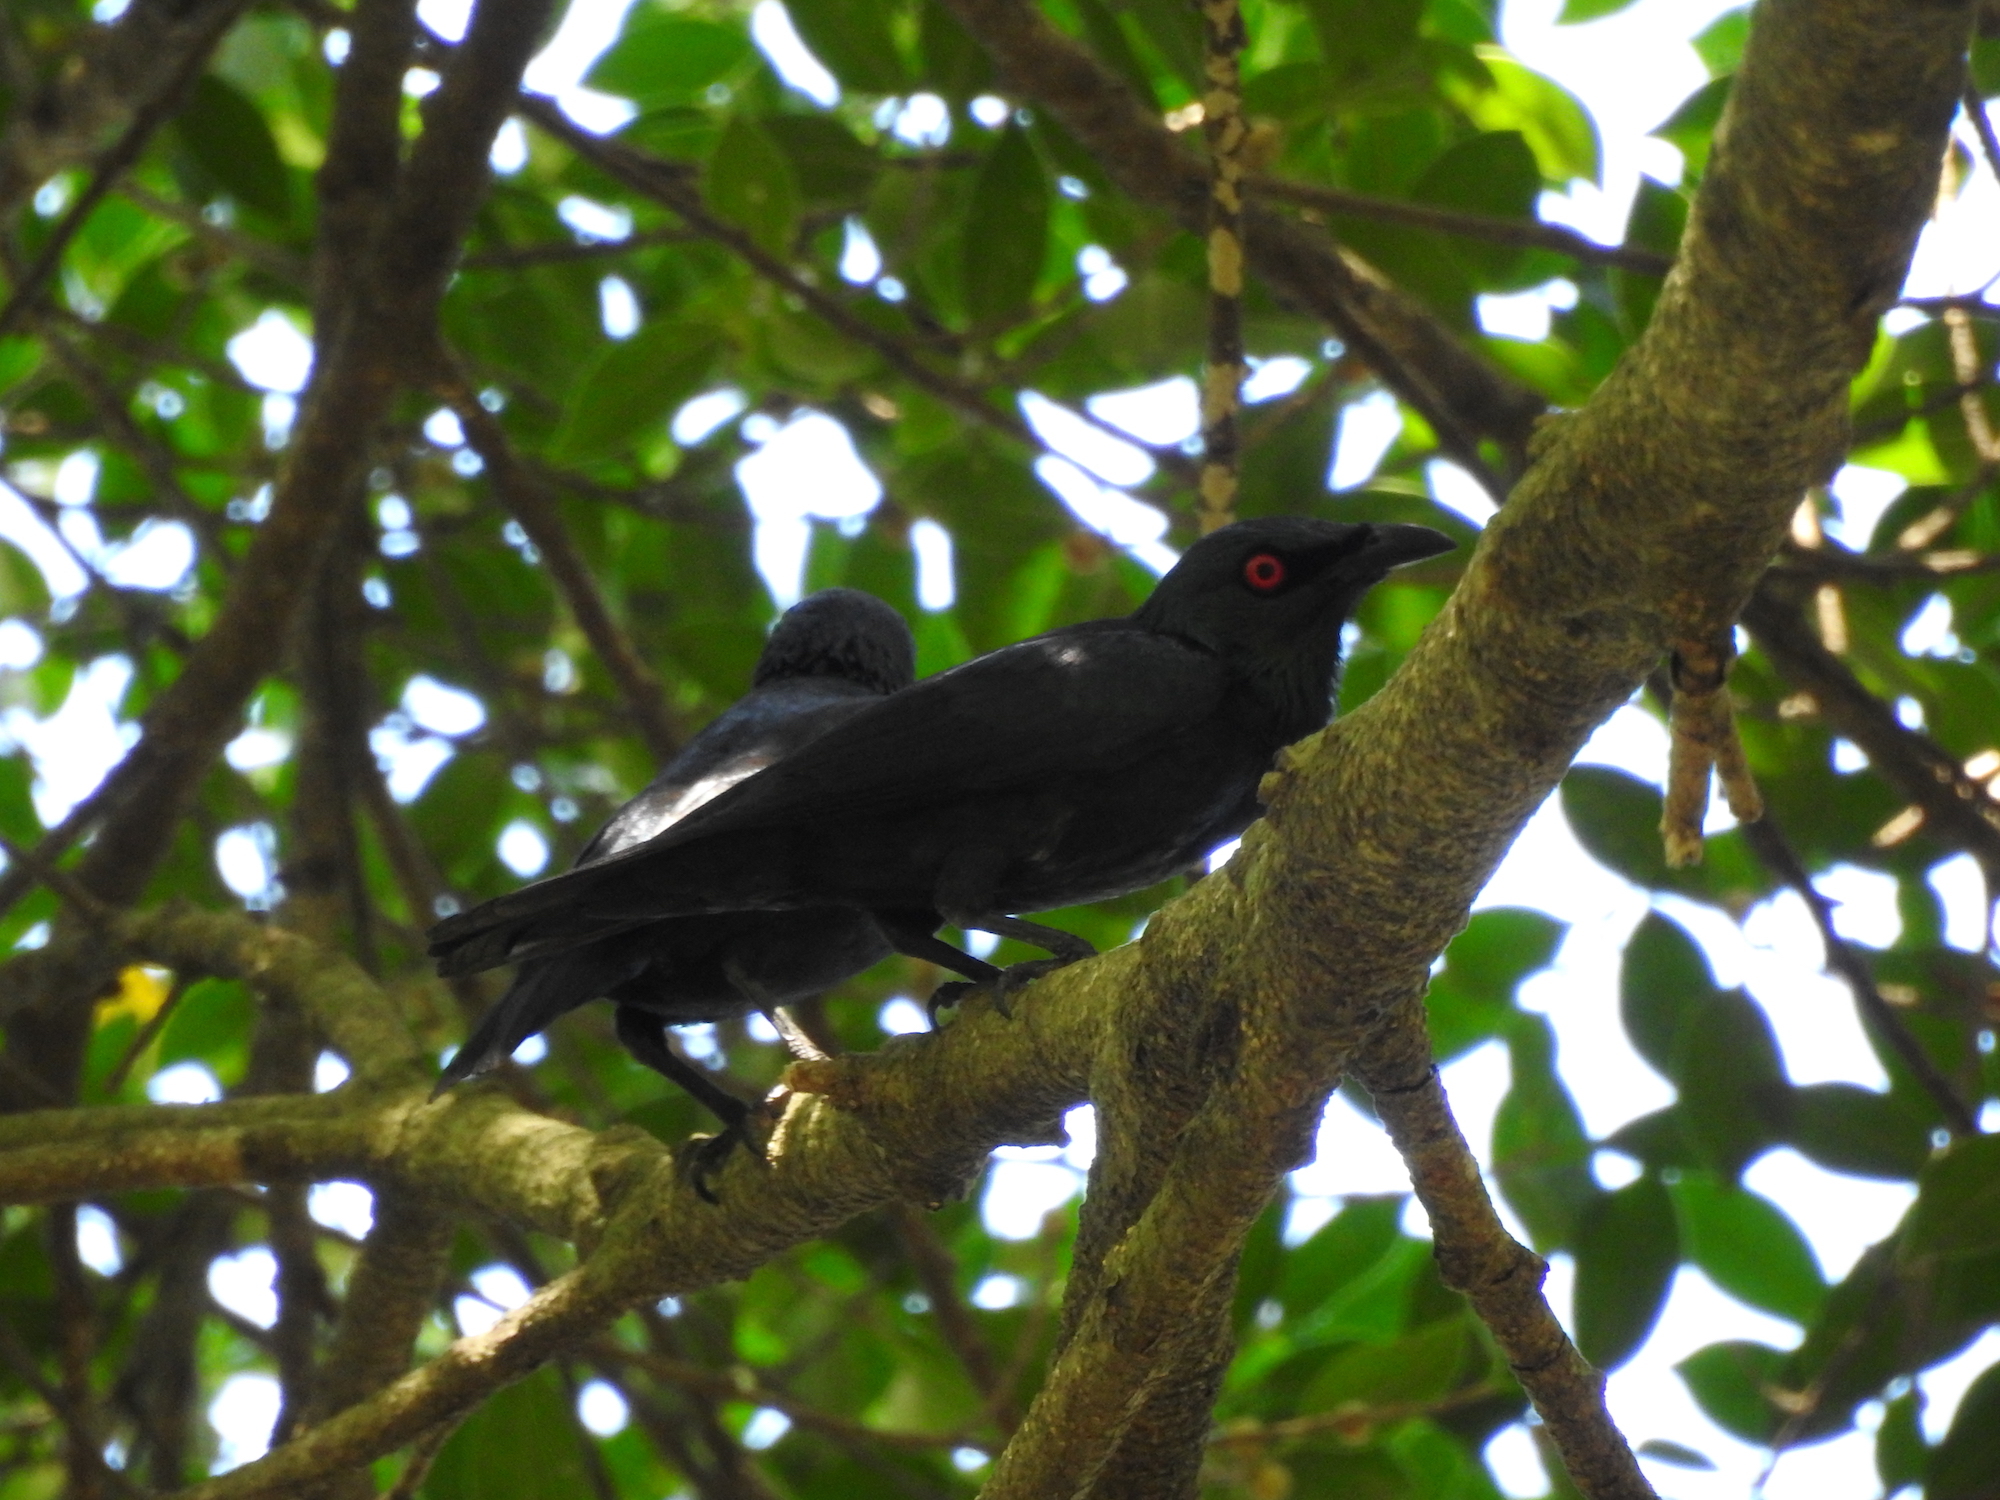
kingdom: Animalia
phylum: Chordata
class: Aves
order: Passeriformes
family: Sturnidae
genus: Aplonis
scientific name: Aplonis panayensis
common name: Asian glossy starling
